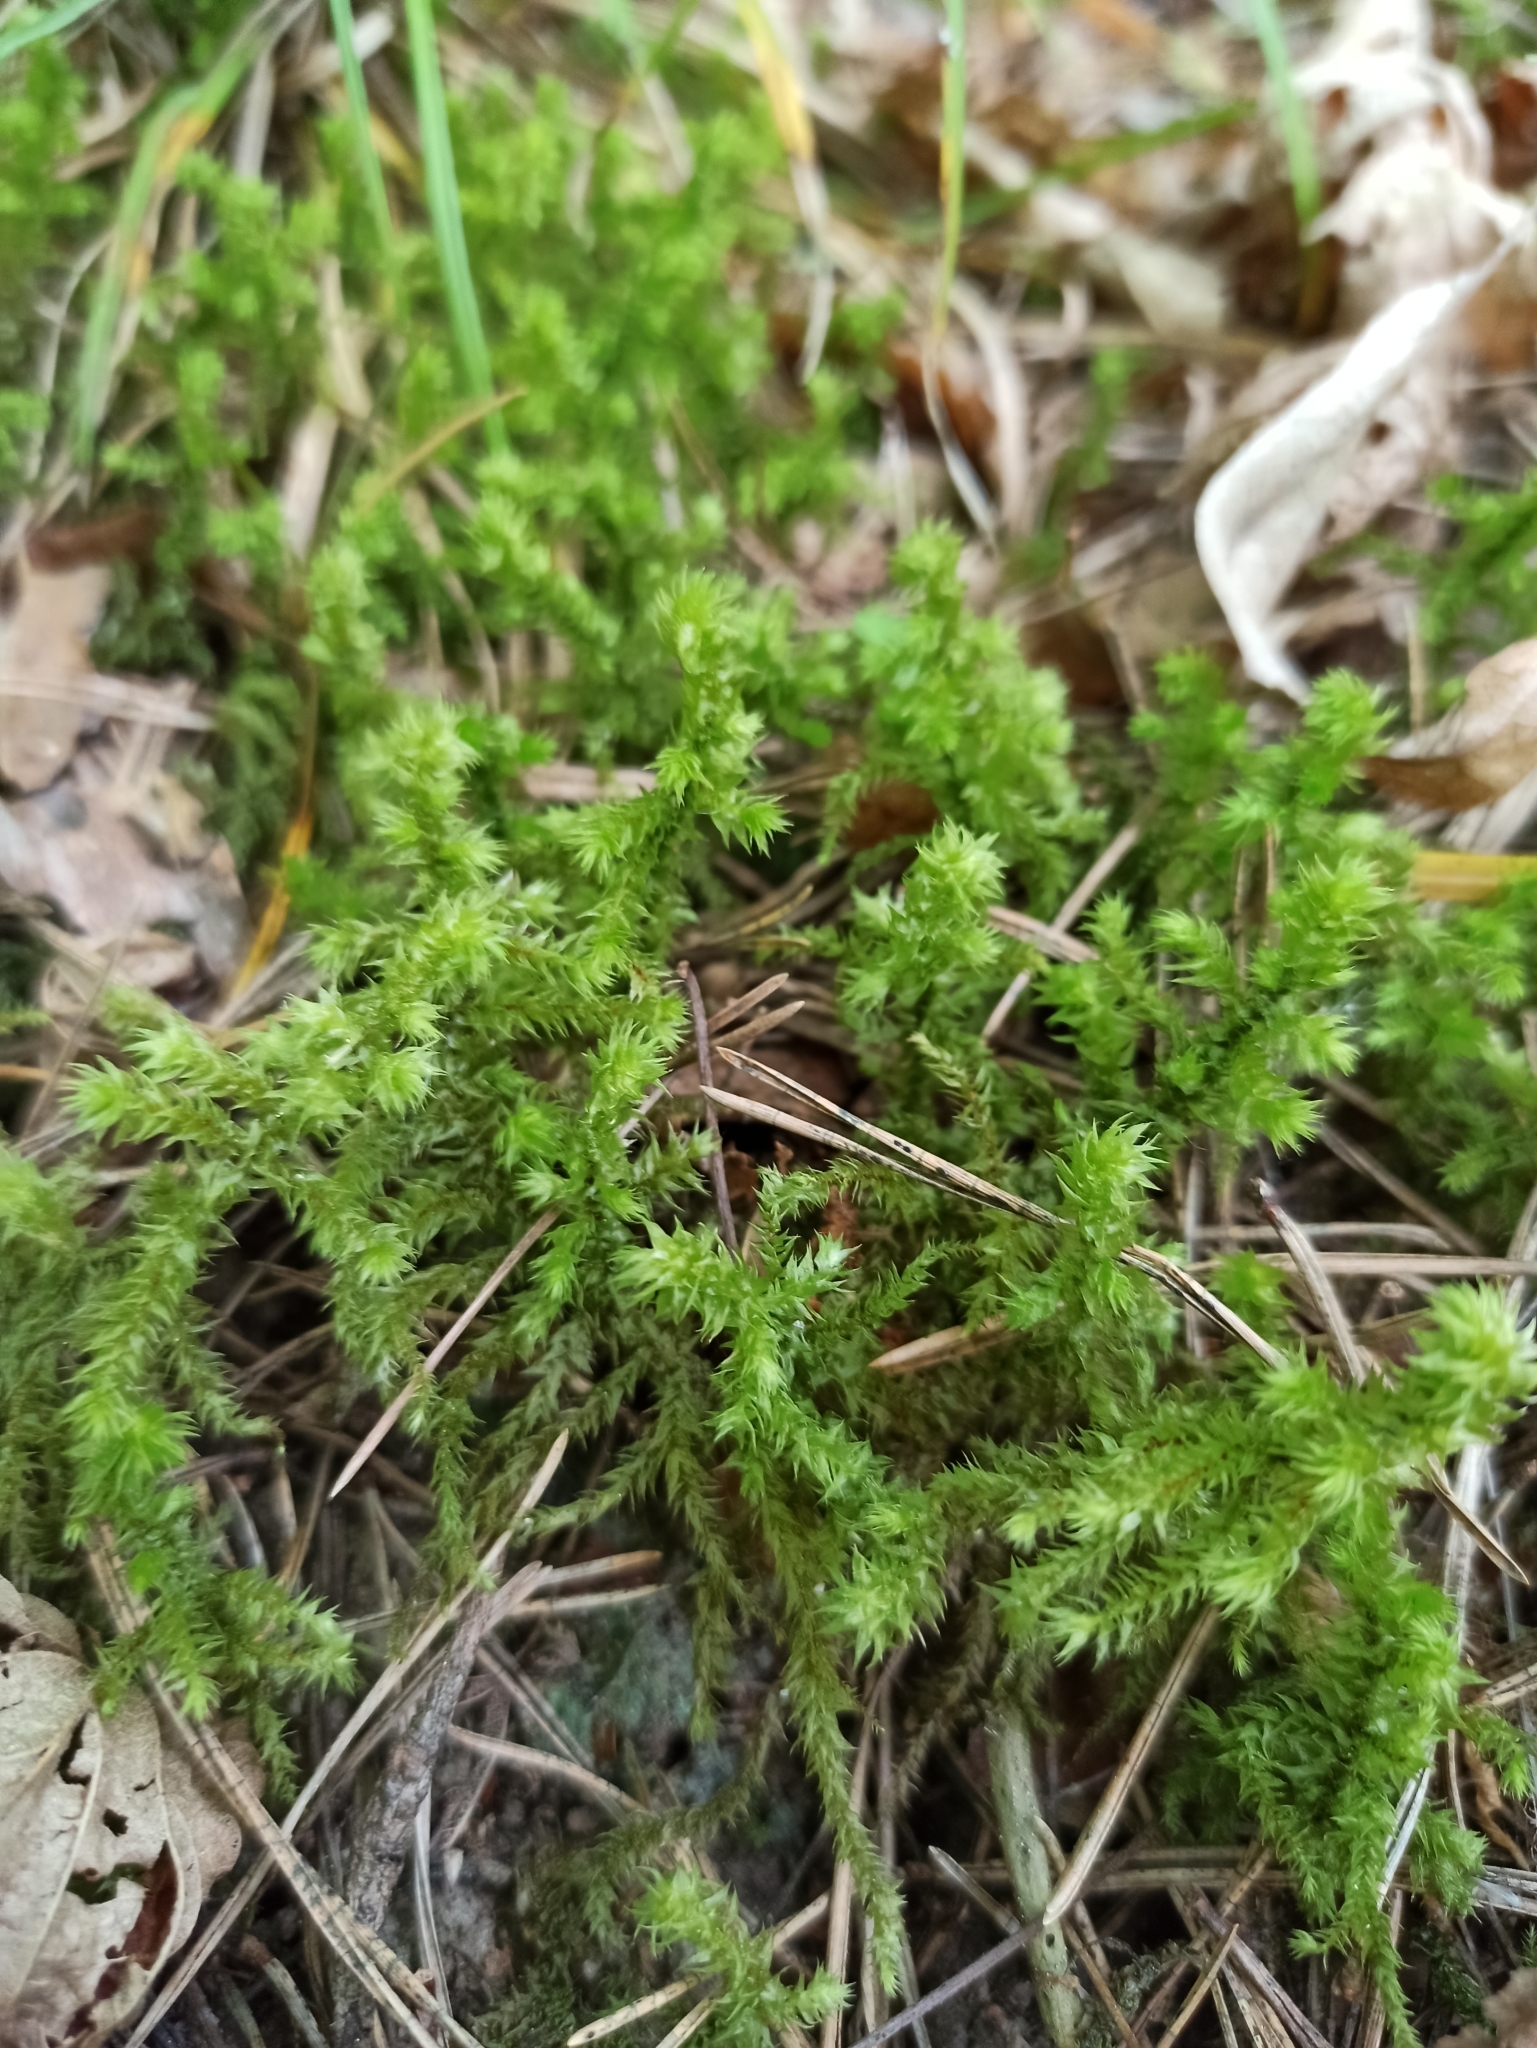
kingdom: Plantae
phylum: Bryophyta
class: Bryopsida
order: Hypnales
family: Hylocomiaceae
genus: Hylocomiadelphus
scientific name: Hylocomiadelphus triquetrus
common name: Rough goose neck moss
